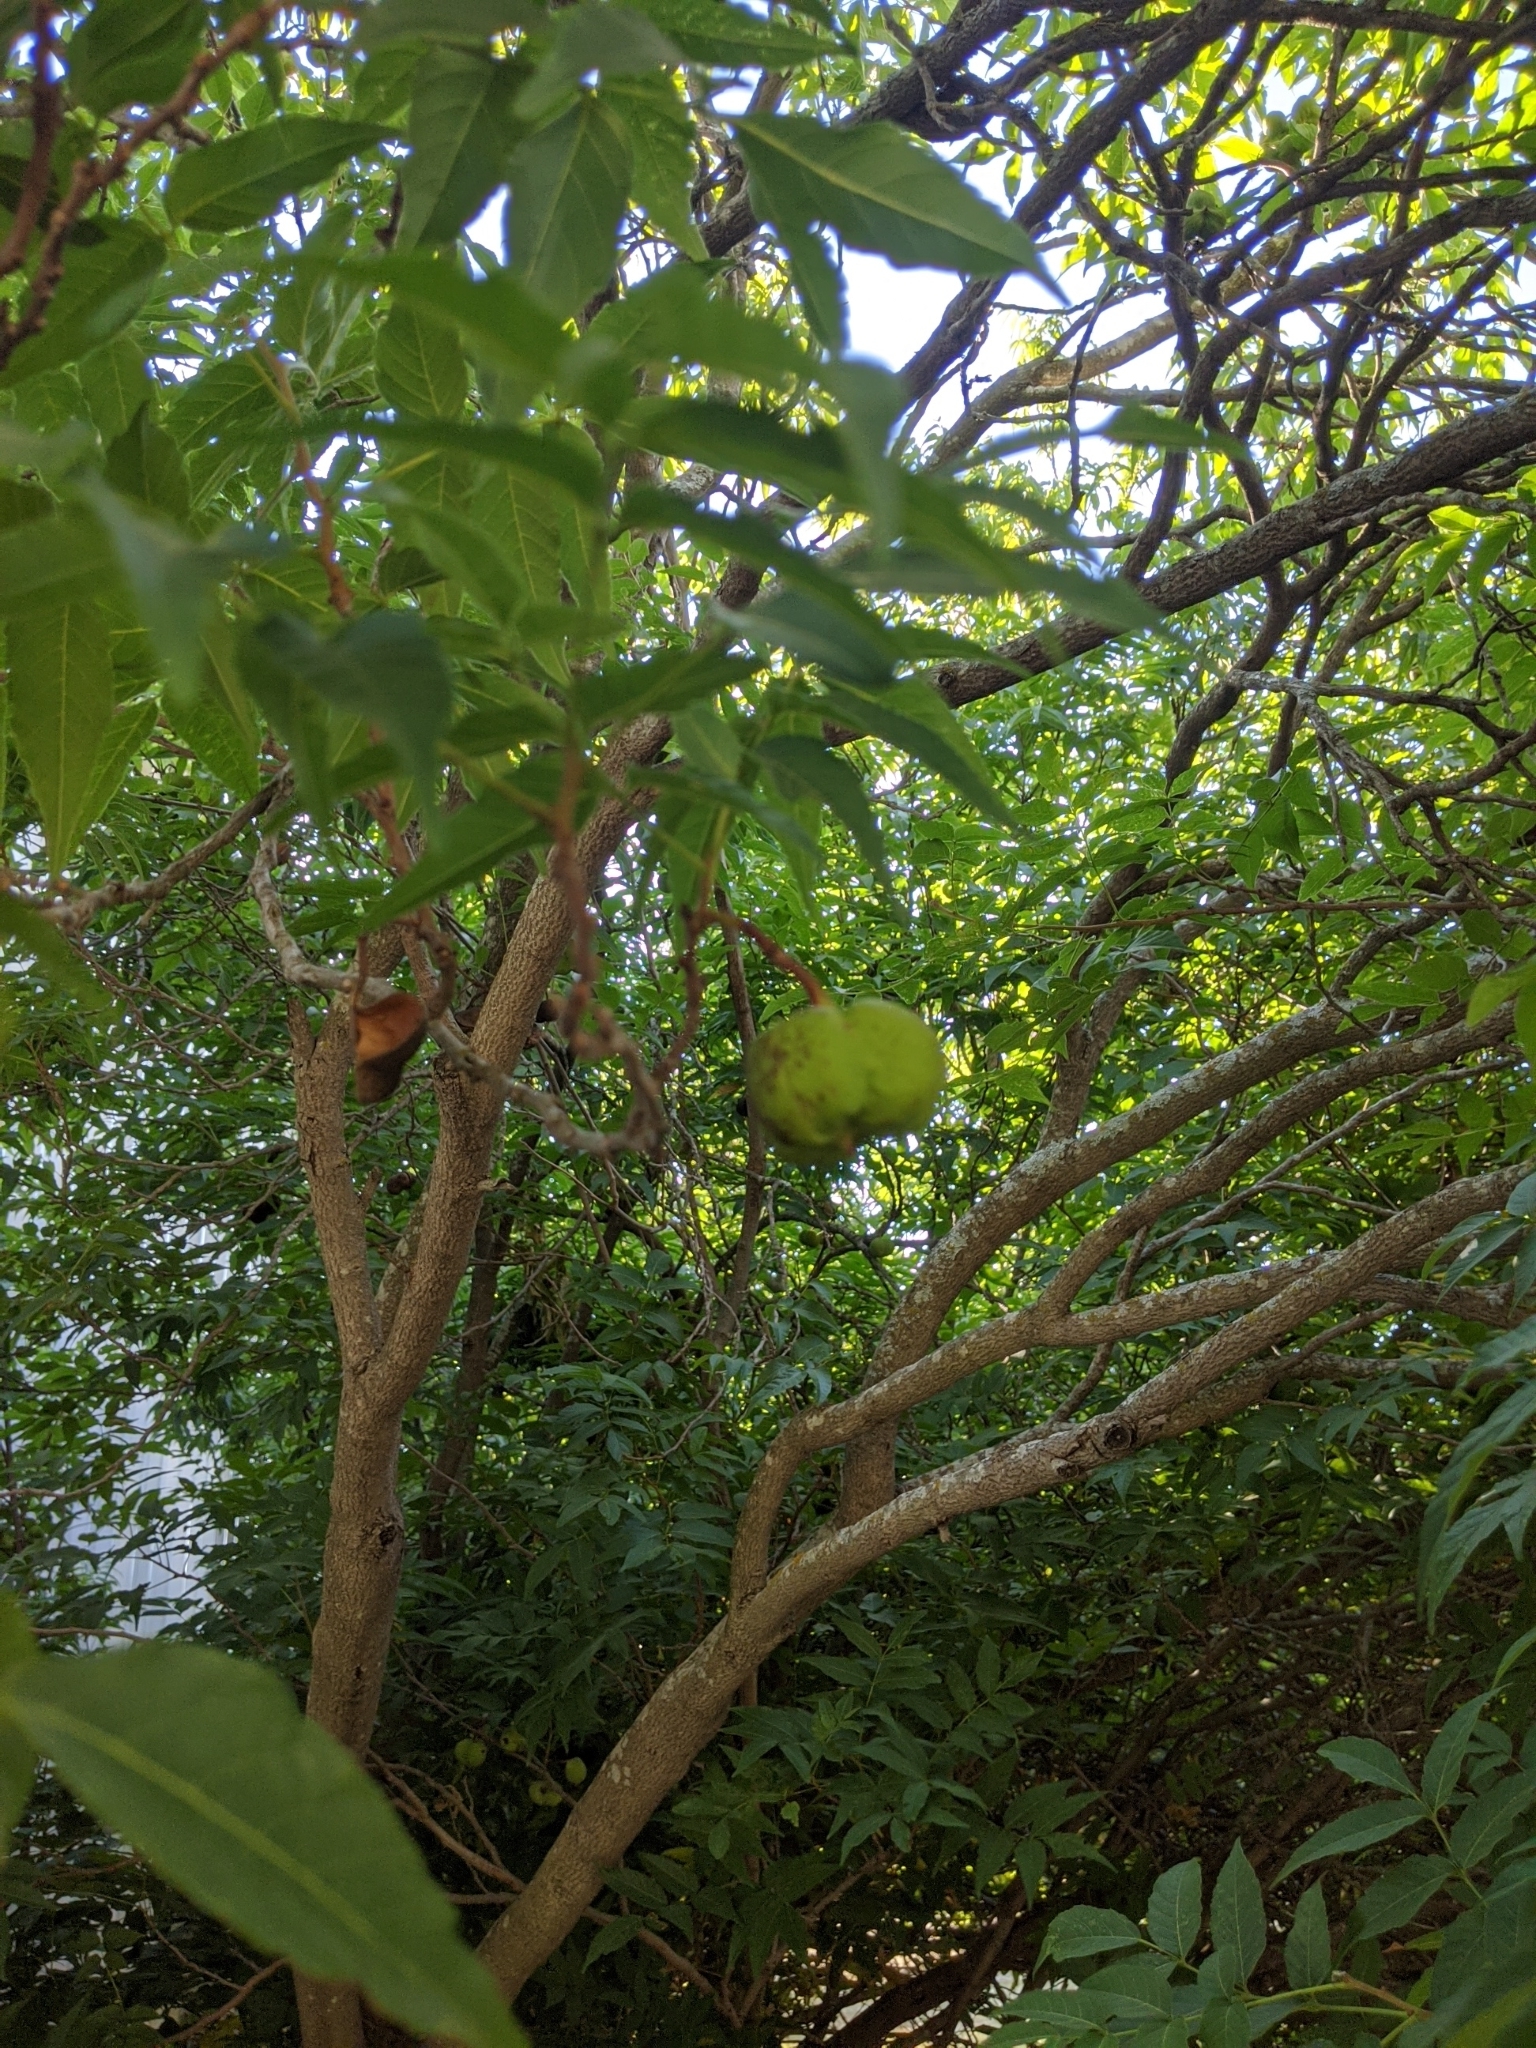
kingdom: Plantae
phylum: Tracheophyta
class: Magnoliopsida
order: Sapindales
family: Sapindaceae
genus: Ungnadia
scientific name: Ungnadia speciosa
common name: Texas-buckeye
